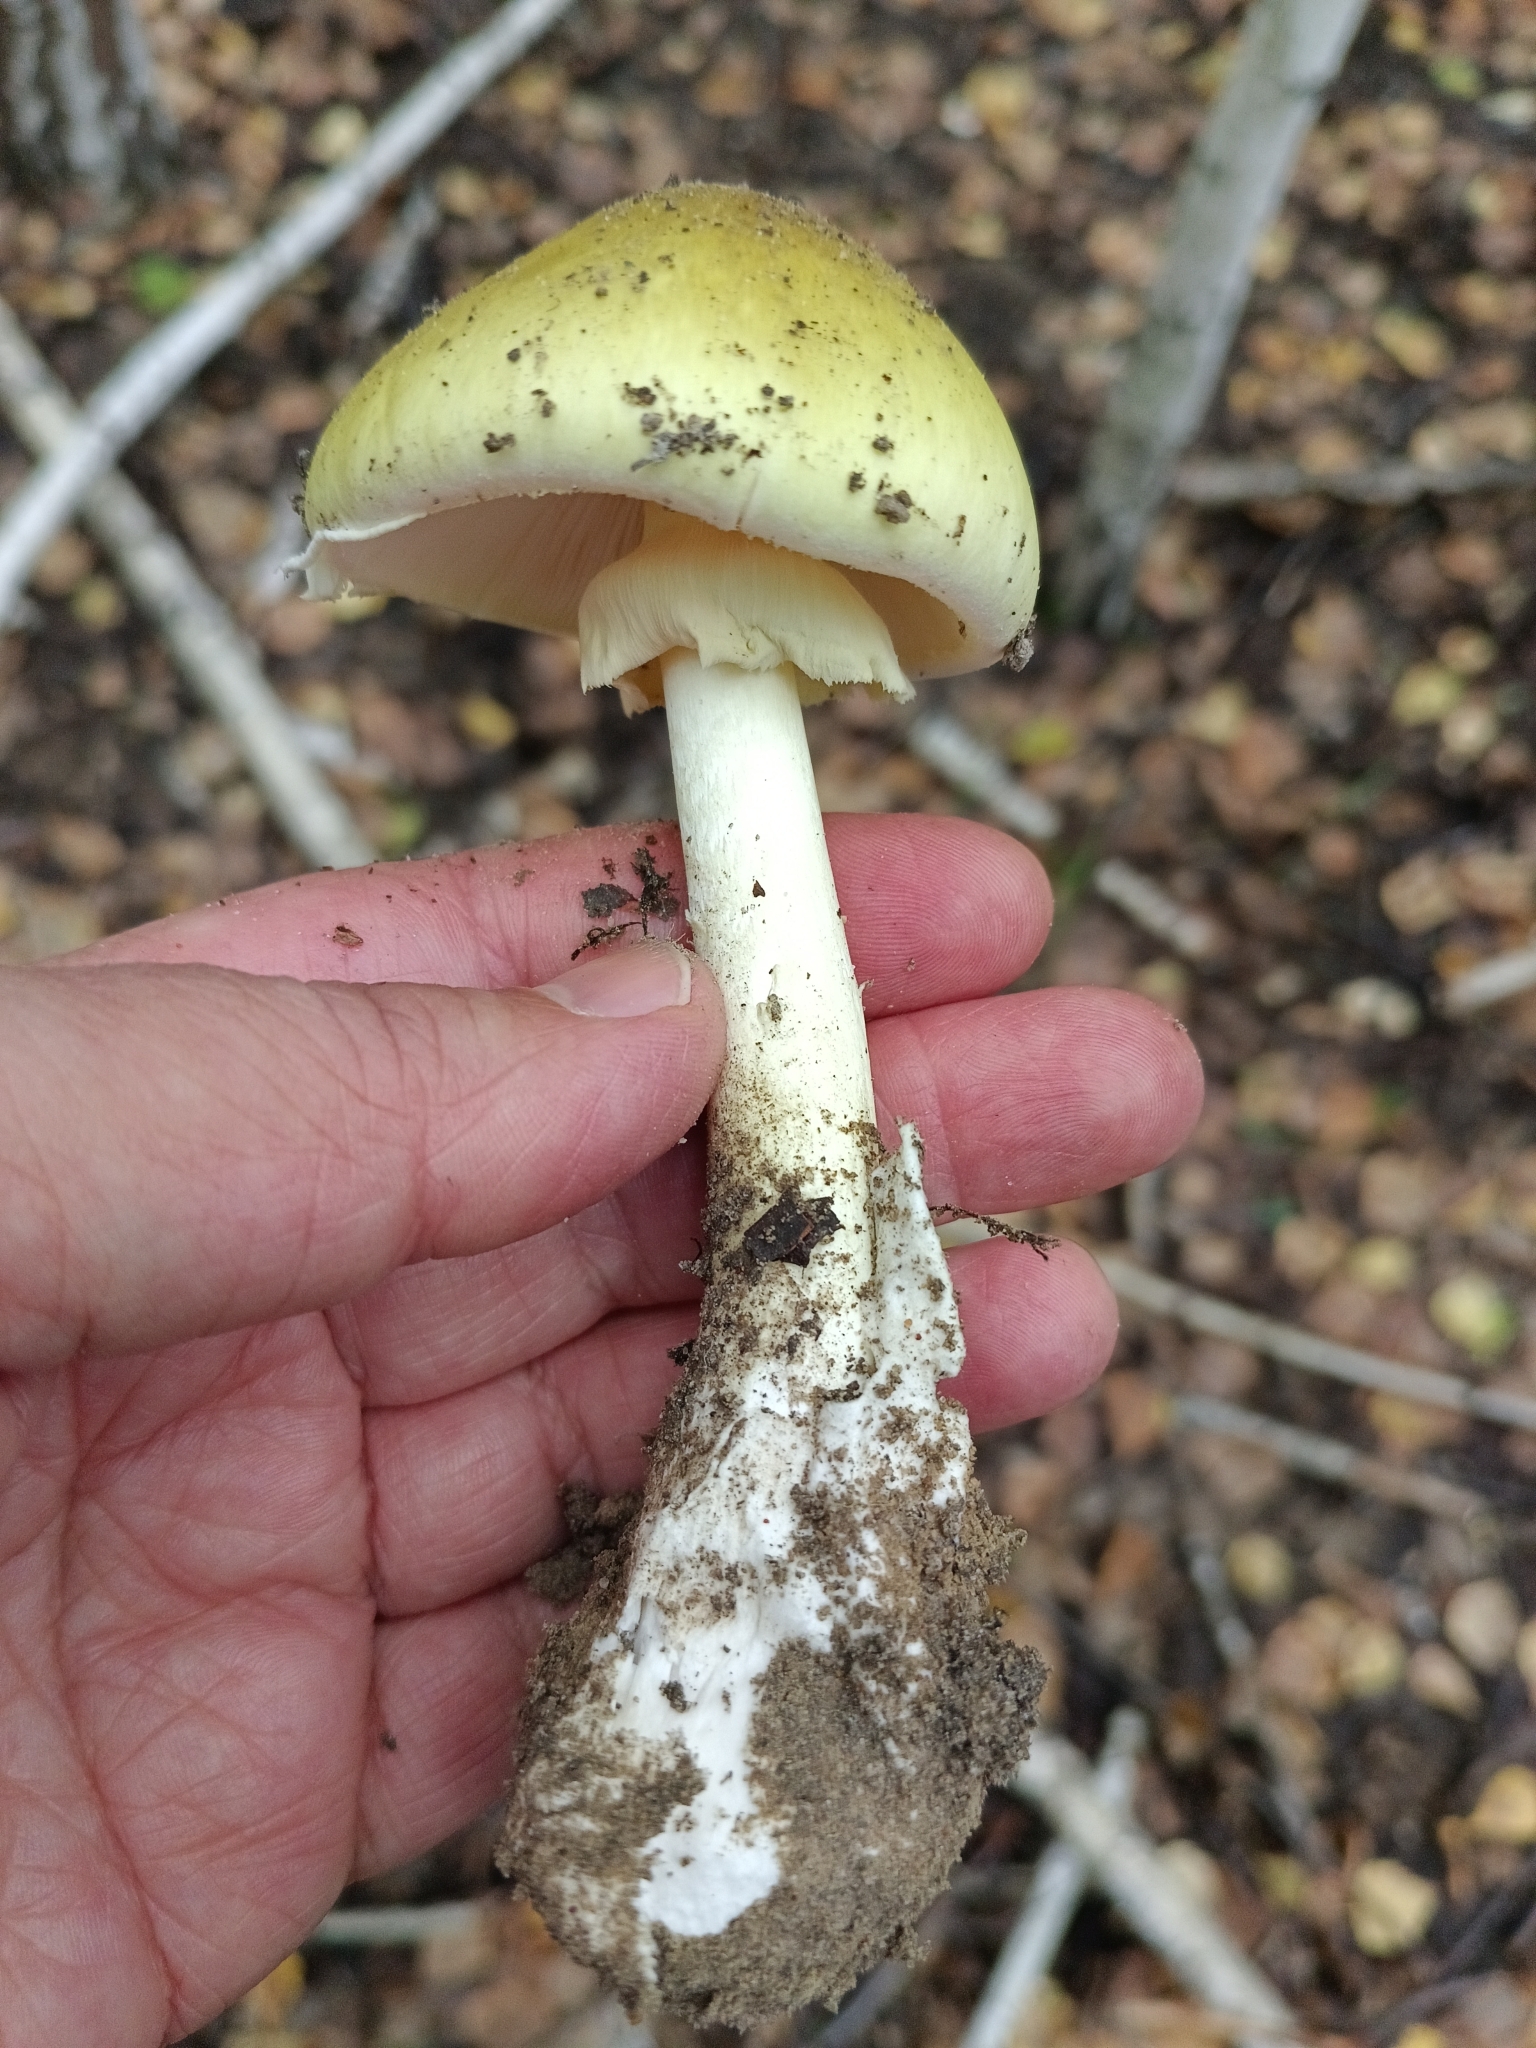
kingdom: Fungi
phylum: Basidiomycota
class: Agaricomycetes
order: Agaricales
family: Amanitaceae
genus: Amanita
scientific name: Amanita phalloides
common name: Death cap
